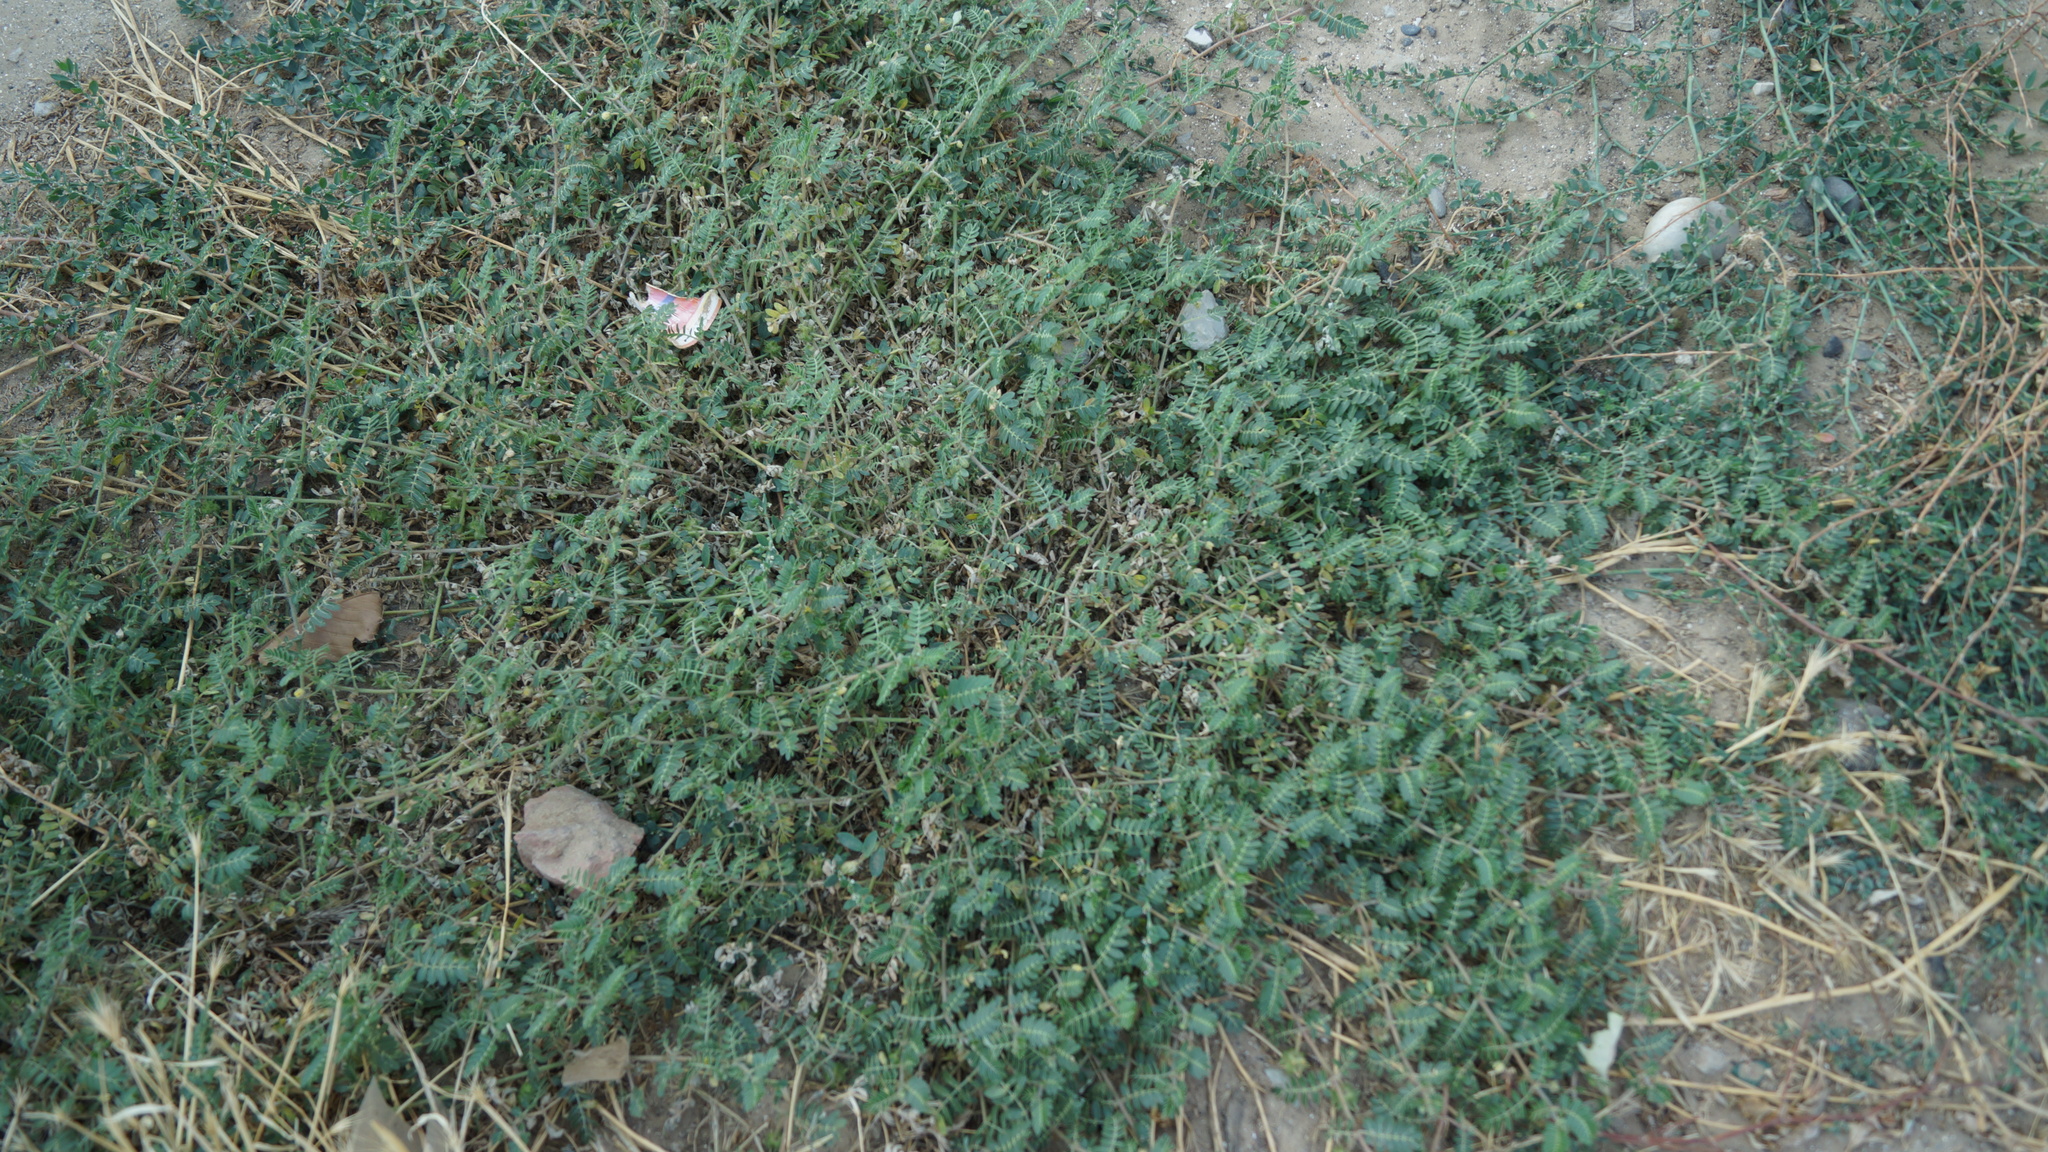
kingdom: Plantae
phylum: Tracheophyta
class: Magnoliopsida
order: Zygophyllales
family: Zygophyllaceae
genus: Tribulus
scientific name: Tribulus terrestris
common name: Puncturevine
